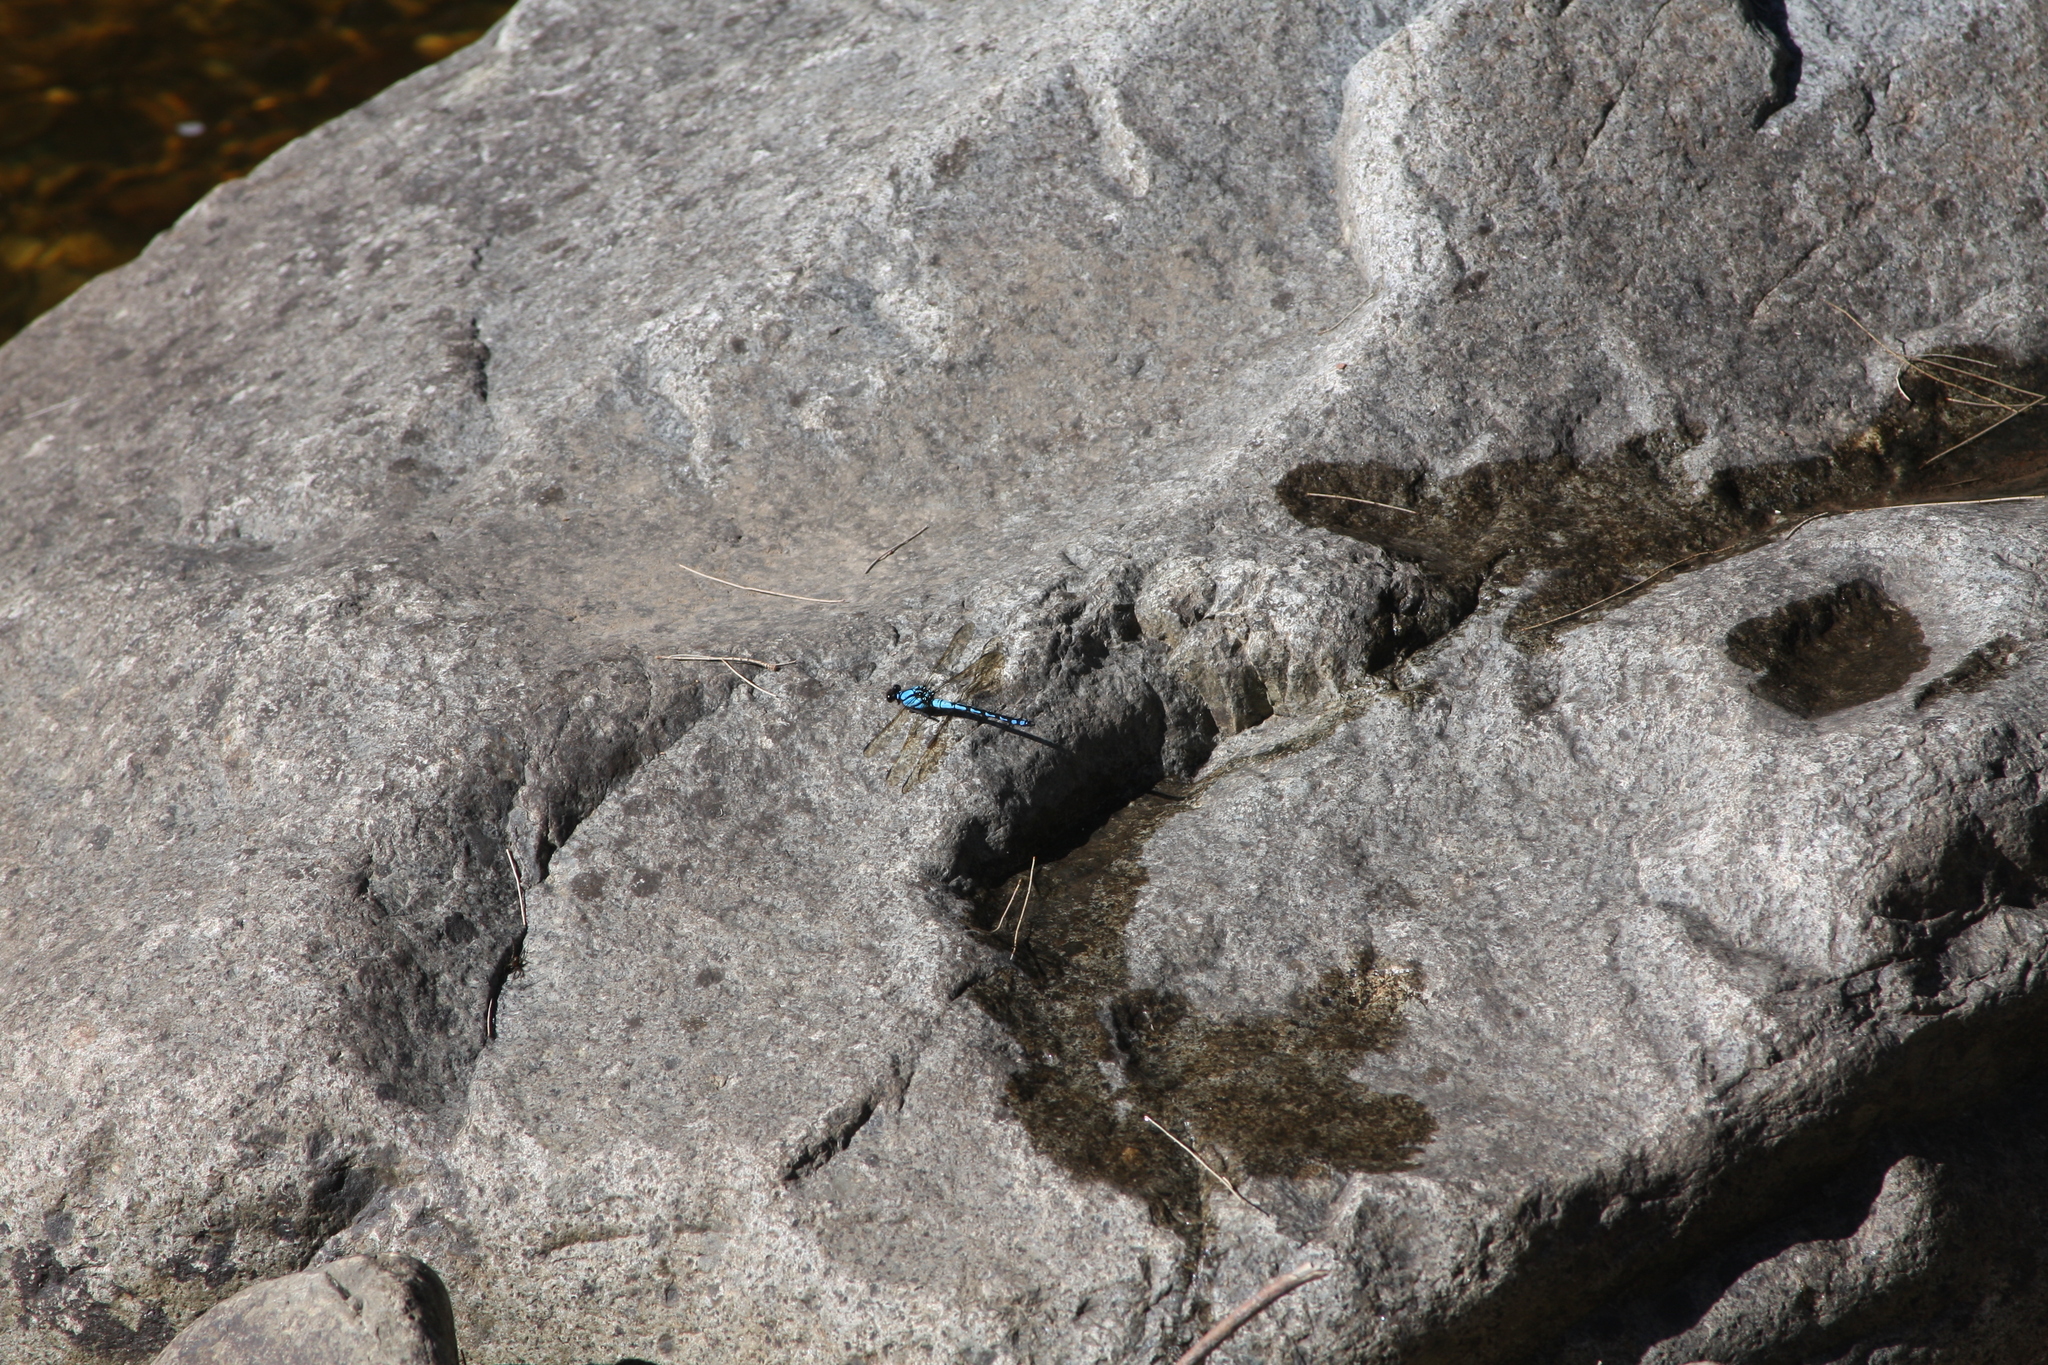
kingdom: Animalia
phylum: Arthropoda
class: Insecta
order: Odonata
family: Lestoideidae
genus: Diphlebia
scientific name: Diphlebia nymphoides
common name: Arrowhead rockmaster
